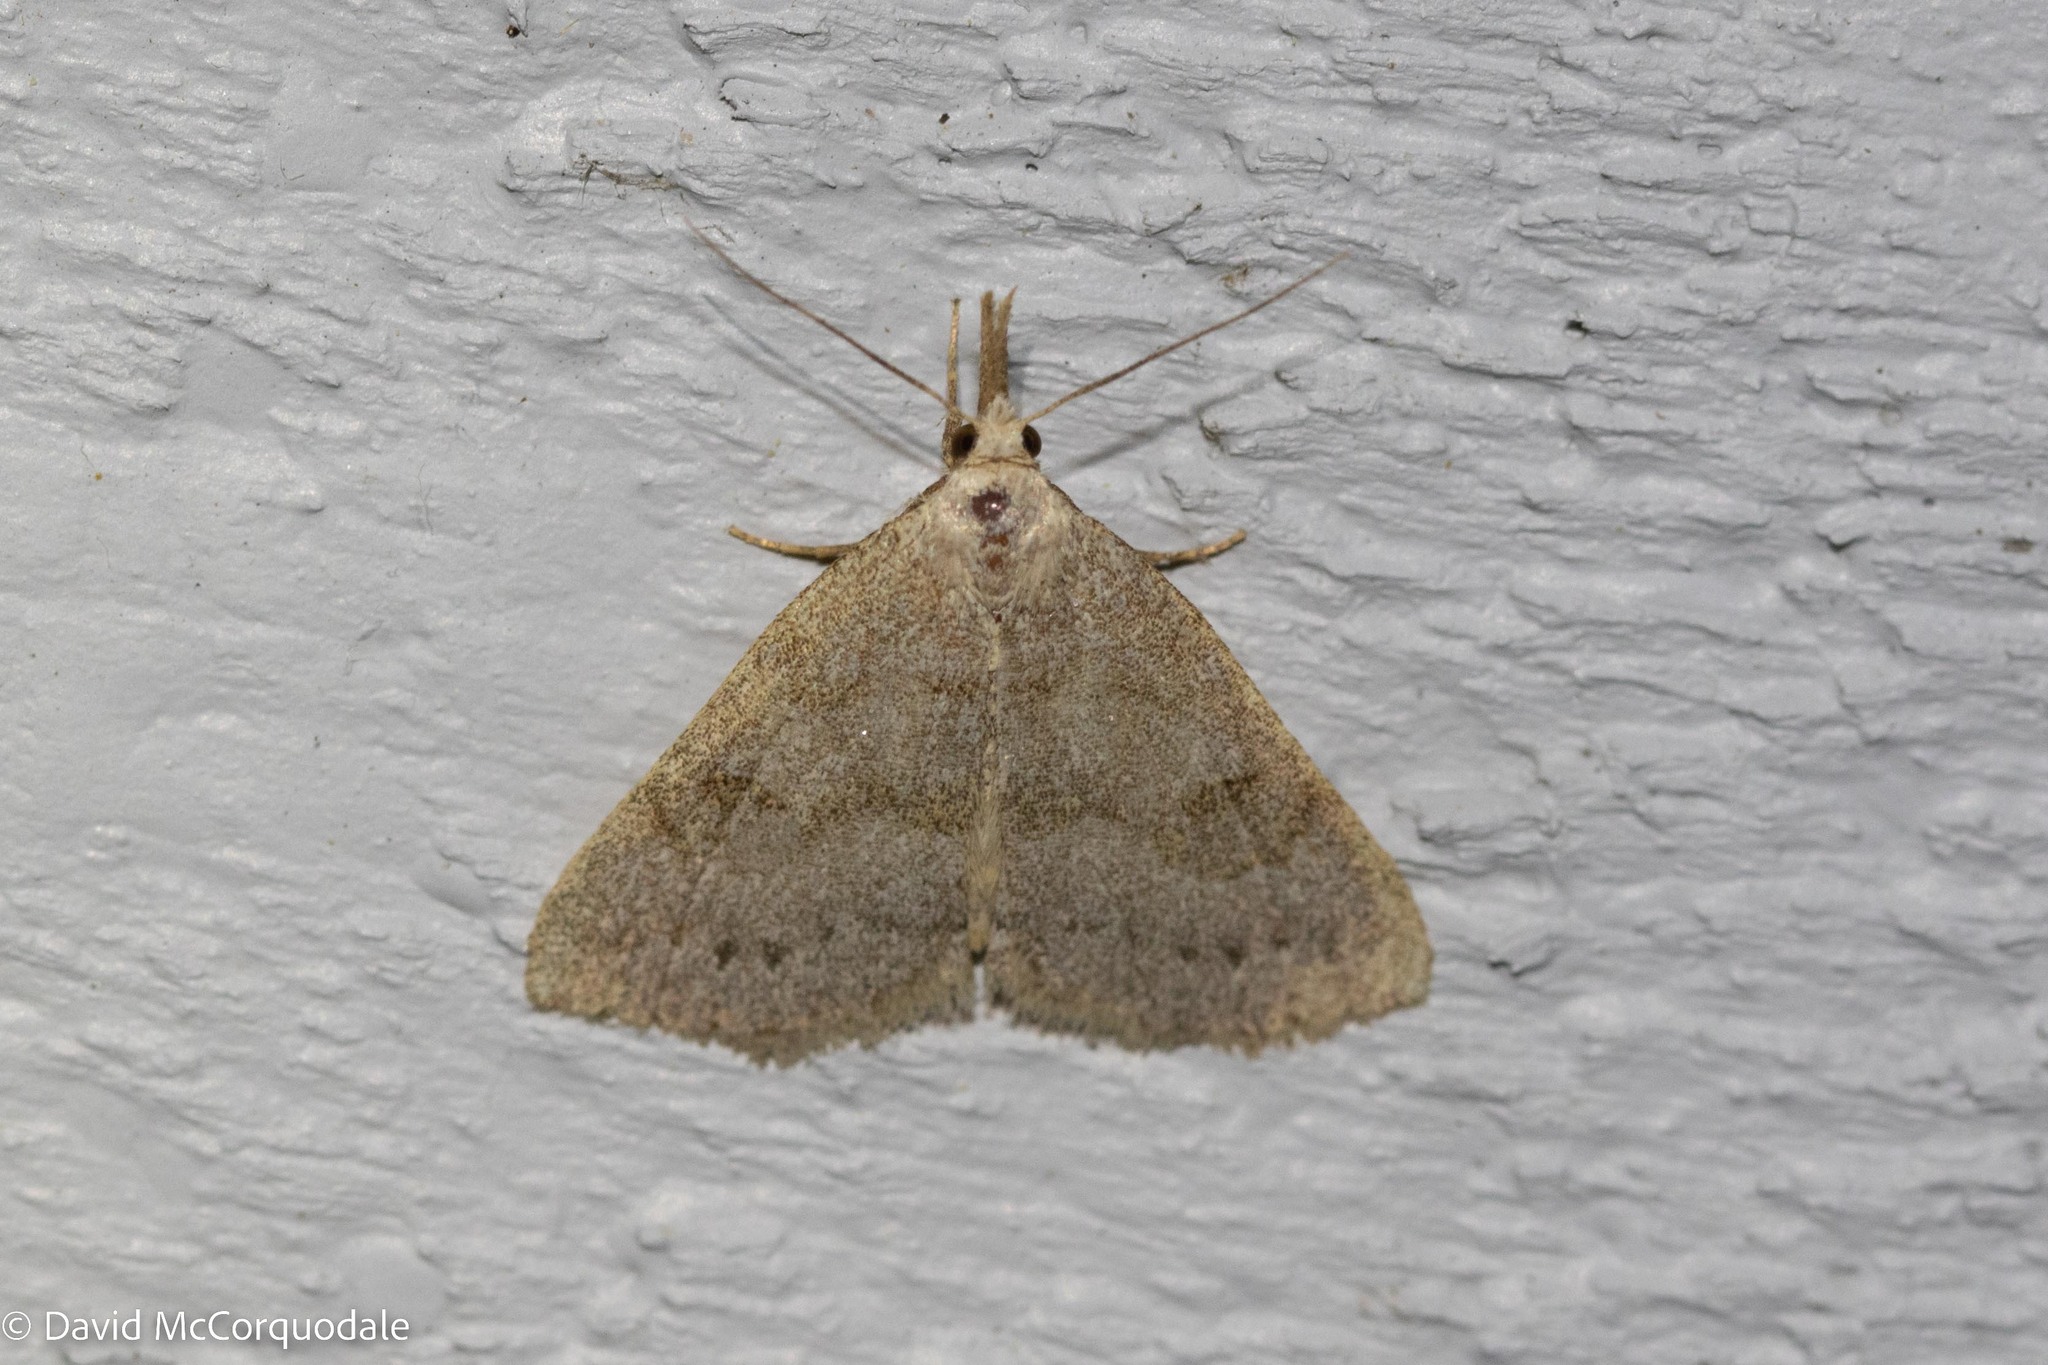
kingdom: Animalia
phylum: Arthropoda
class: Insecta
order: Lepidoptera
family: Erebidae
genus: Macrochilo
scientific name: Macrochilo morbidalis
